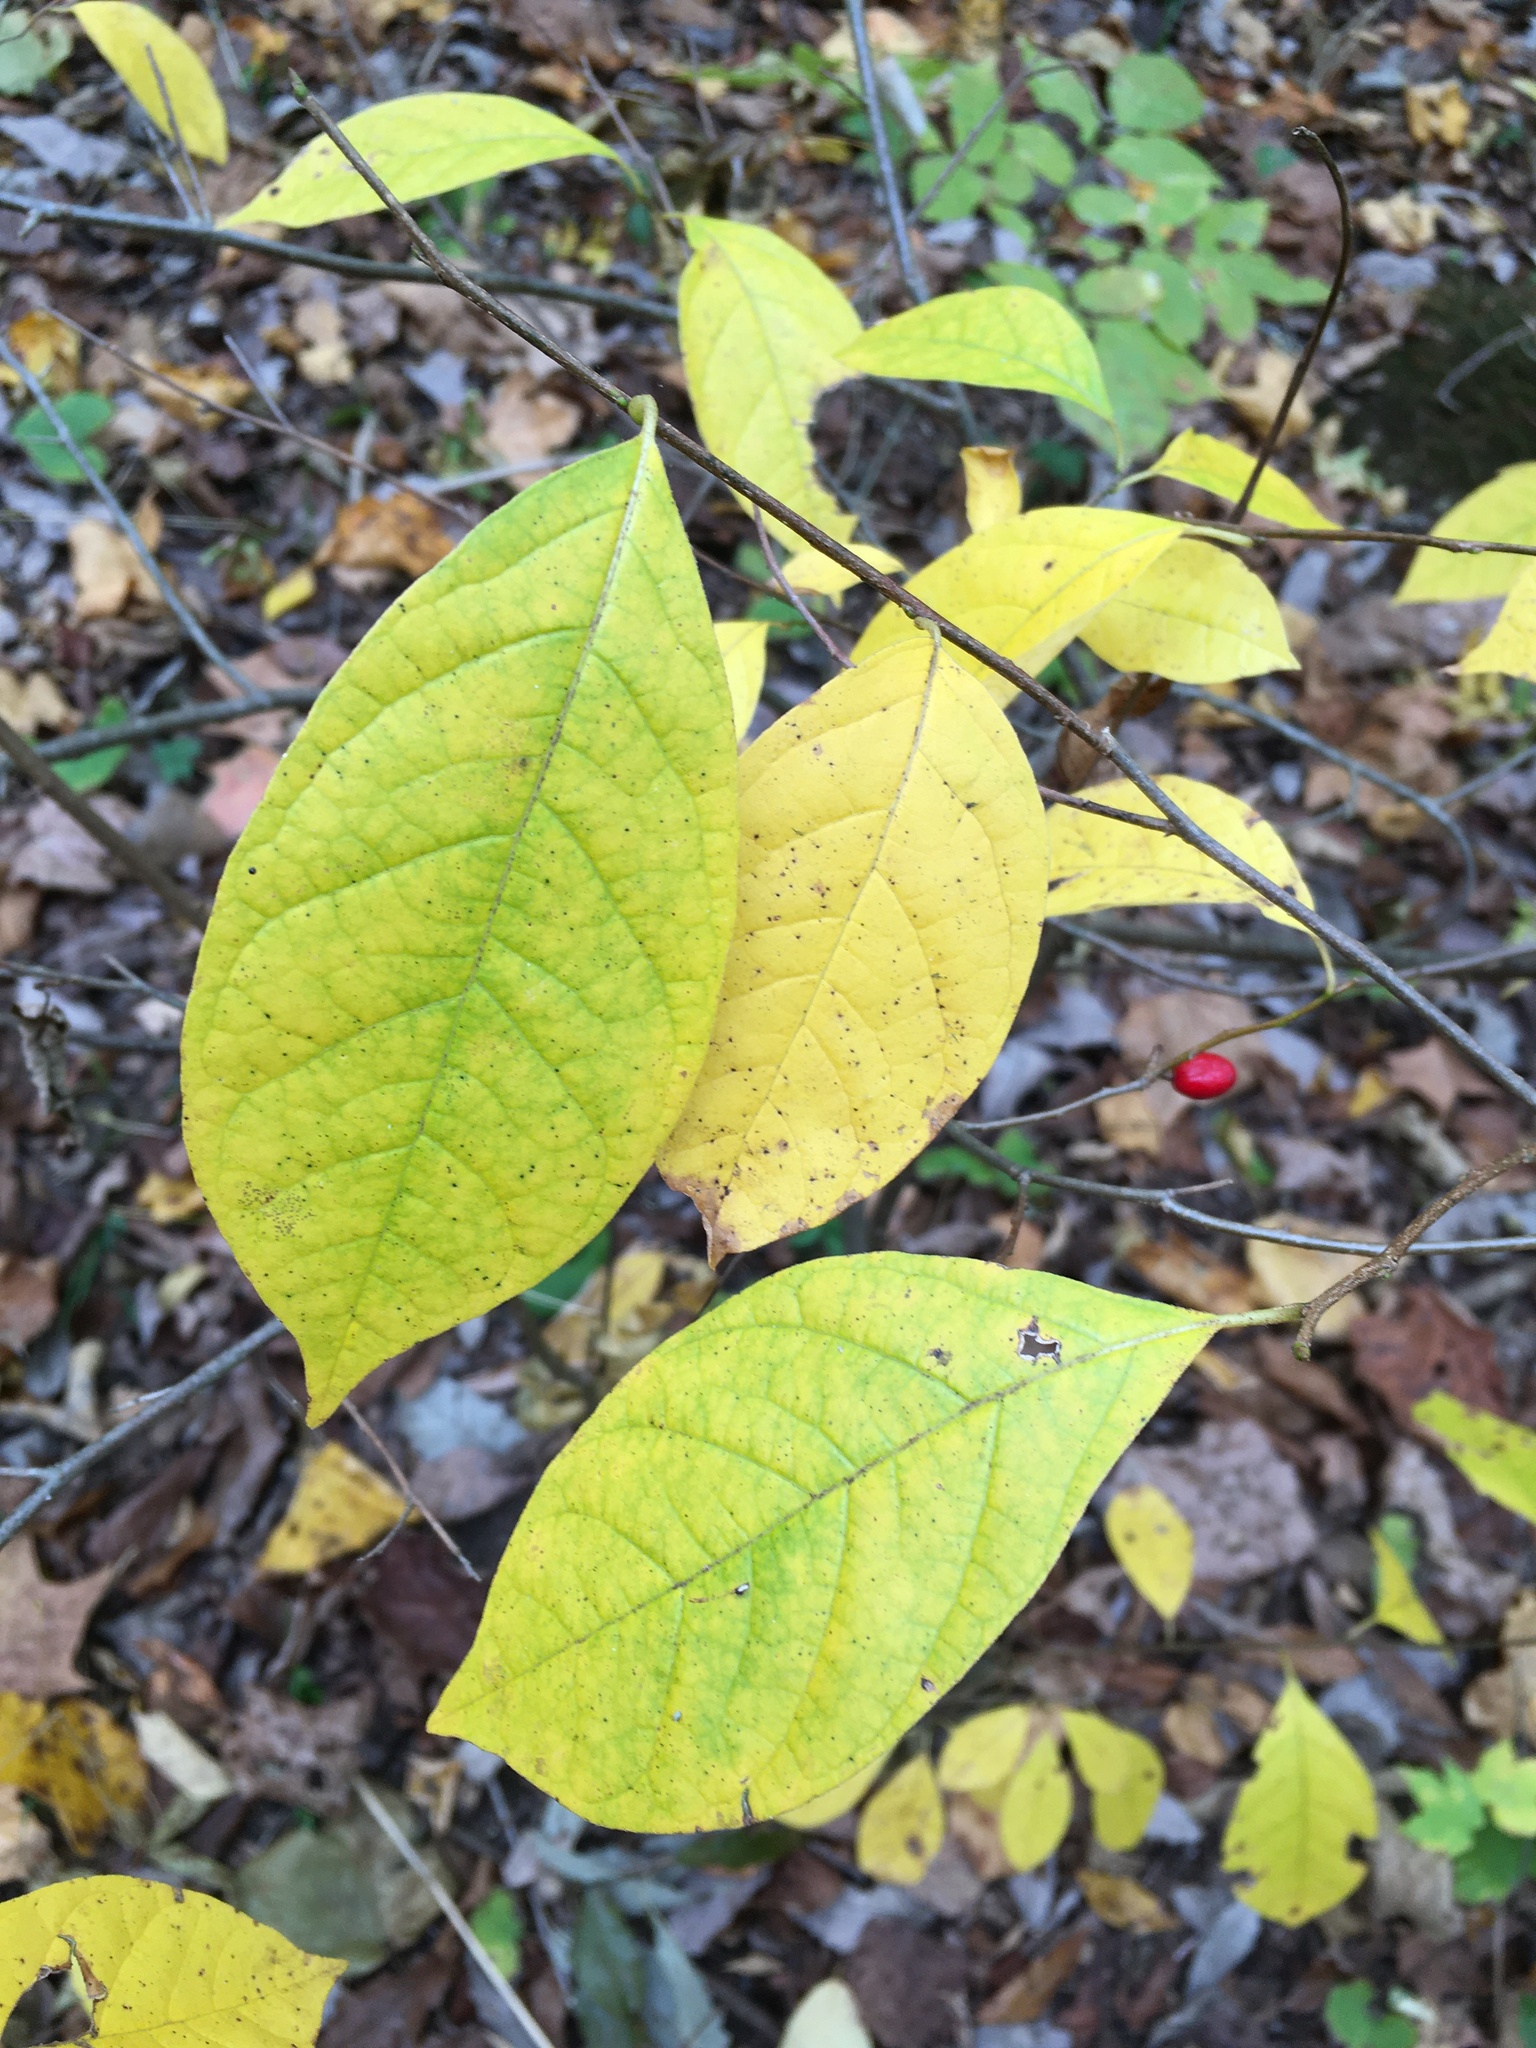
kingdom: Plantae
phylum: Tracheophyta
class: Magnoliopsida
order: Laurales
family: Lauraceae
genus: Lindera
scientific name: Lindera benzoin
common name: Spicebush
